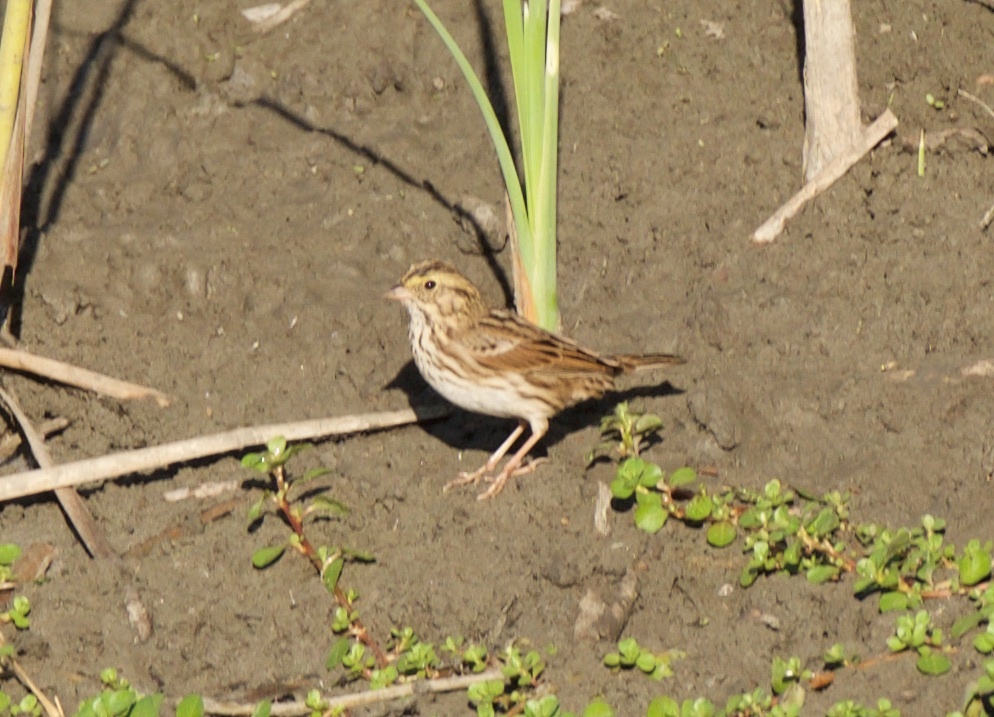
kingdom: Animalia
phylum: Chordata
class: Aves
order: Passeriformes
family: Passerellidae
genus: Passerculus
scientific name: Passerculus sandwichensis
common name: Savannah sparrow
